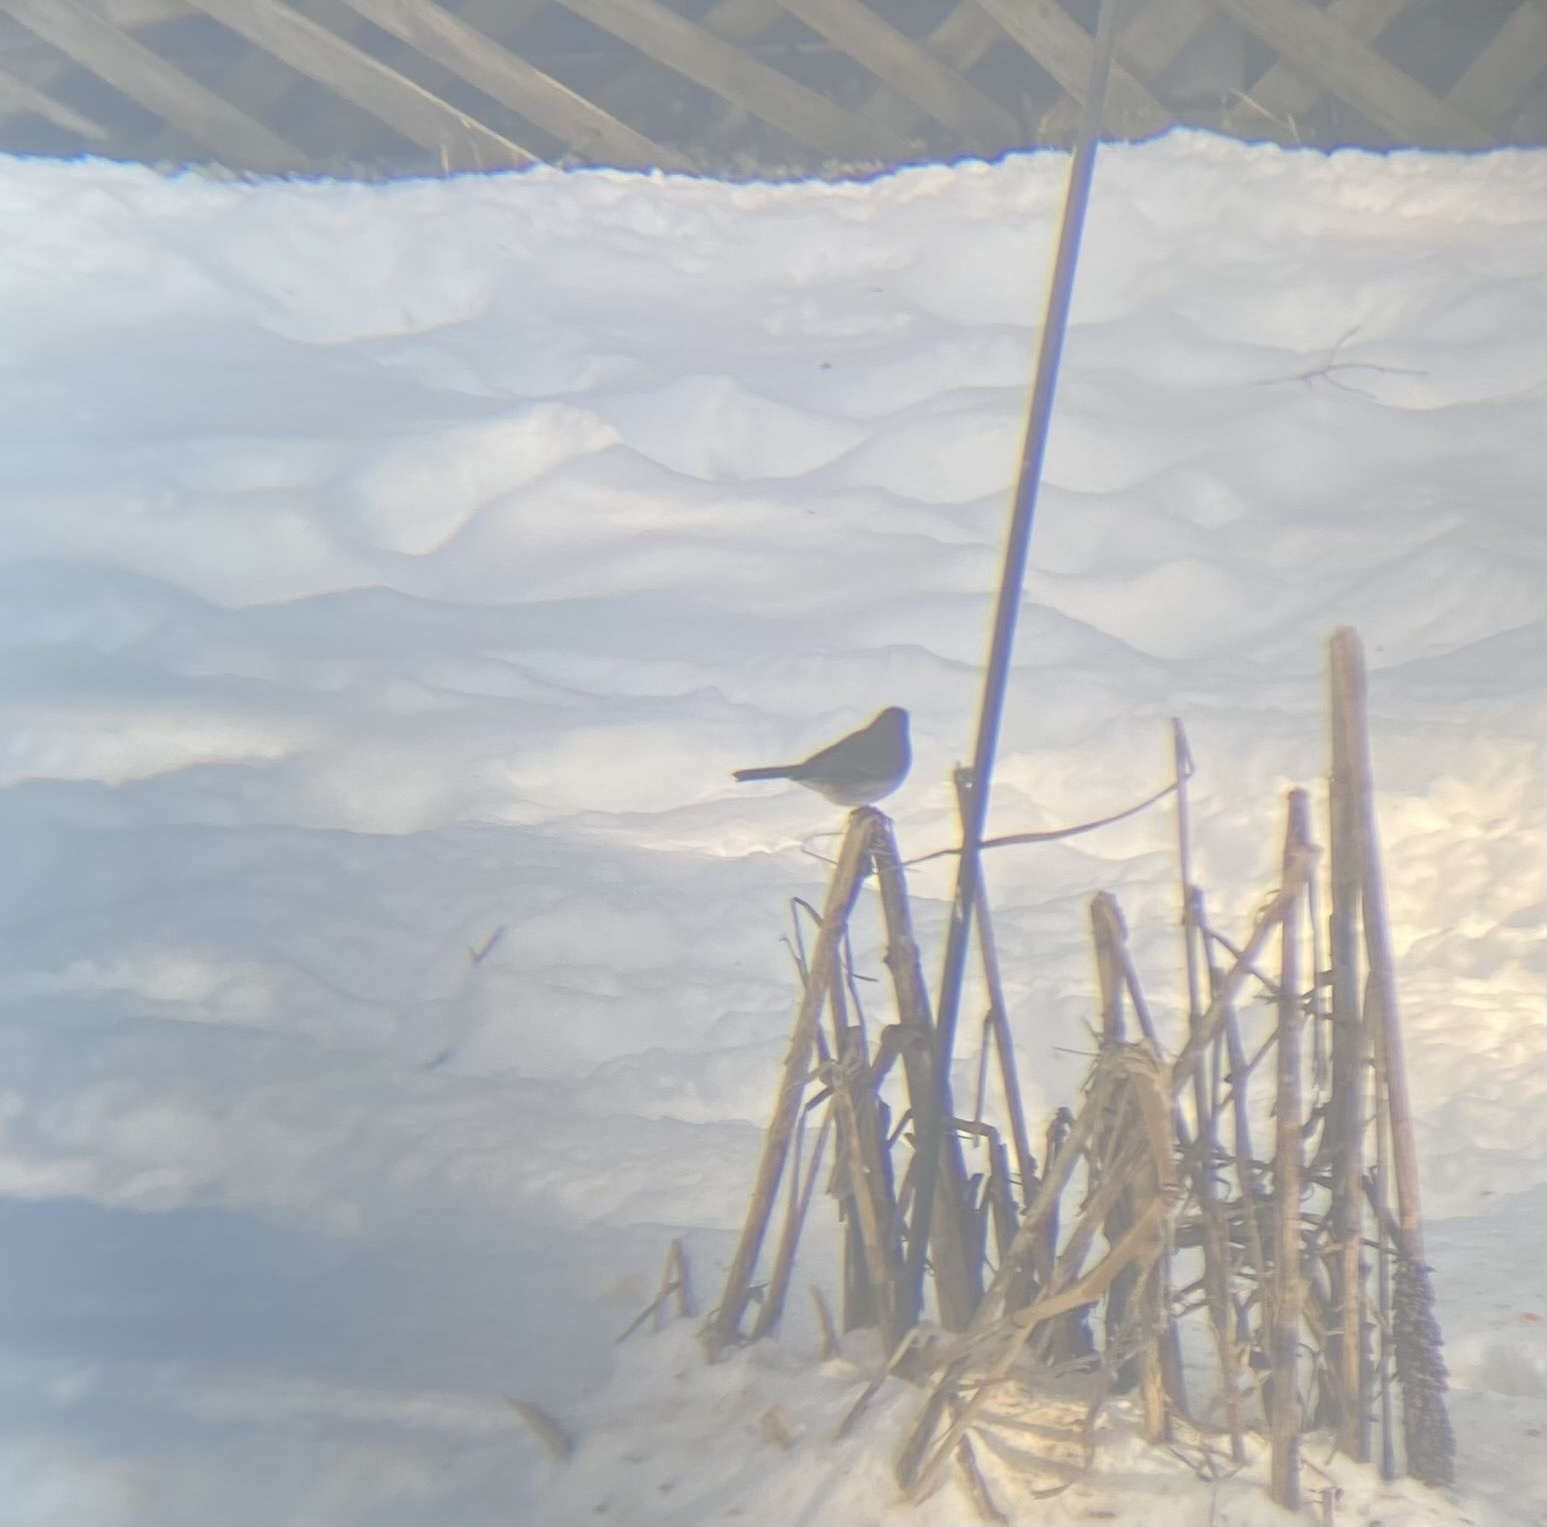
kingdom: Animalia
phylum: Chordata
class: Aves
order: Passeriformes
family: Passerellidae
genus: Junco
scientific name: Junco hyemalis
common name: Dark-eyed junco
